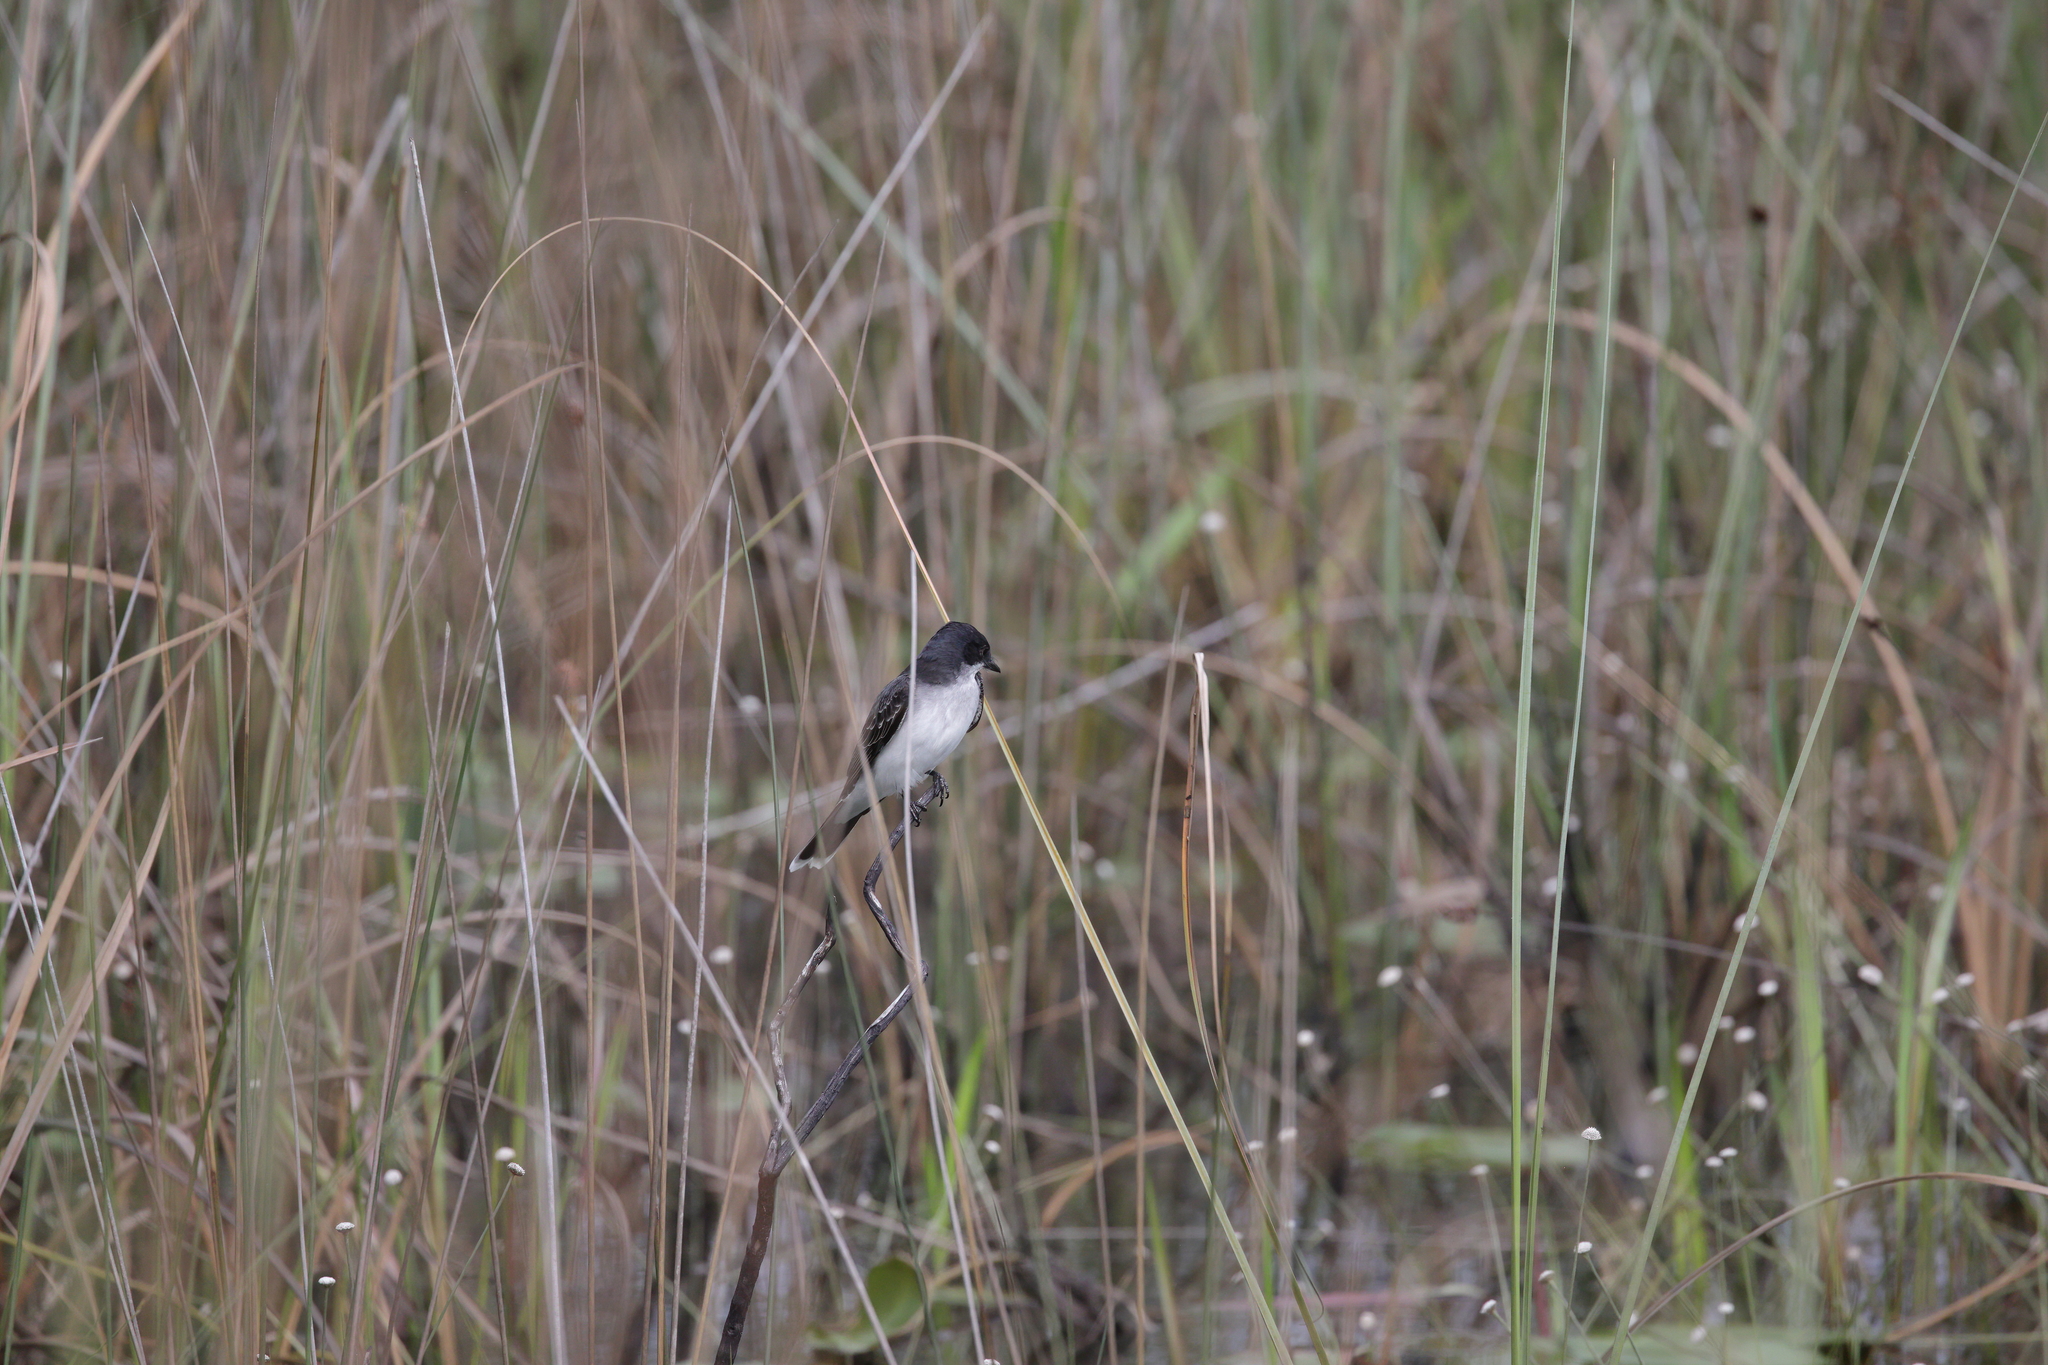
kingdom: Animalia
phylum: Chordata
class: Aves
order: Passeriformes
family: Tyrannidae
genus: Tyrannus
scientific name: Tyrannus tyrannus
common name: Eastern kingbird
